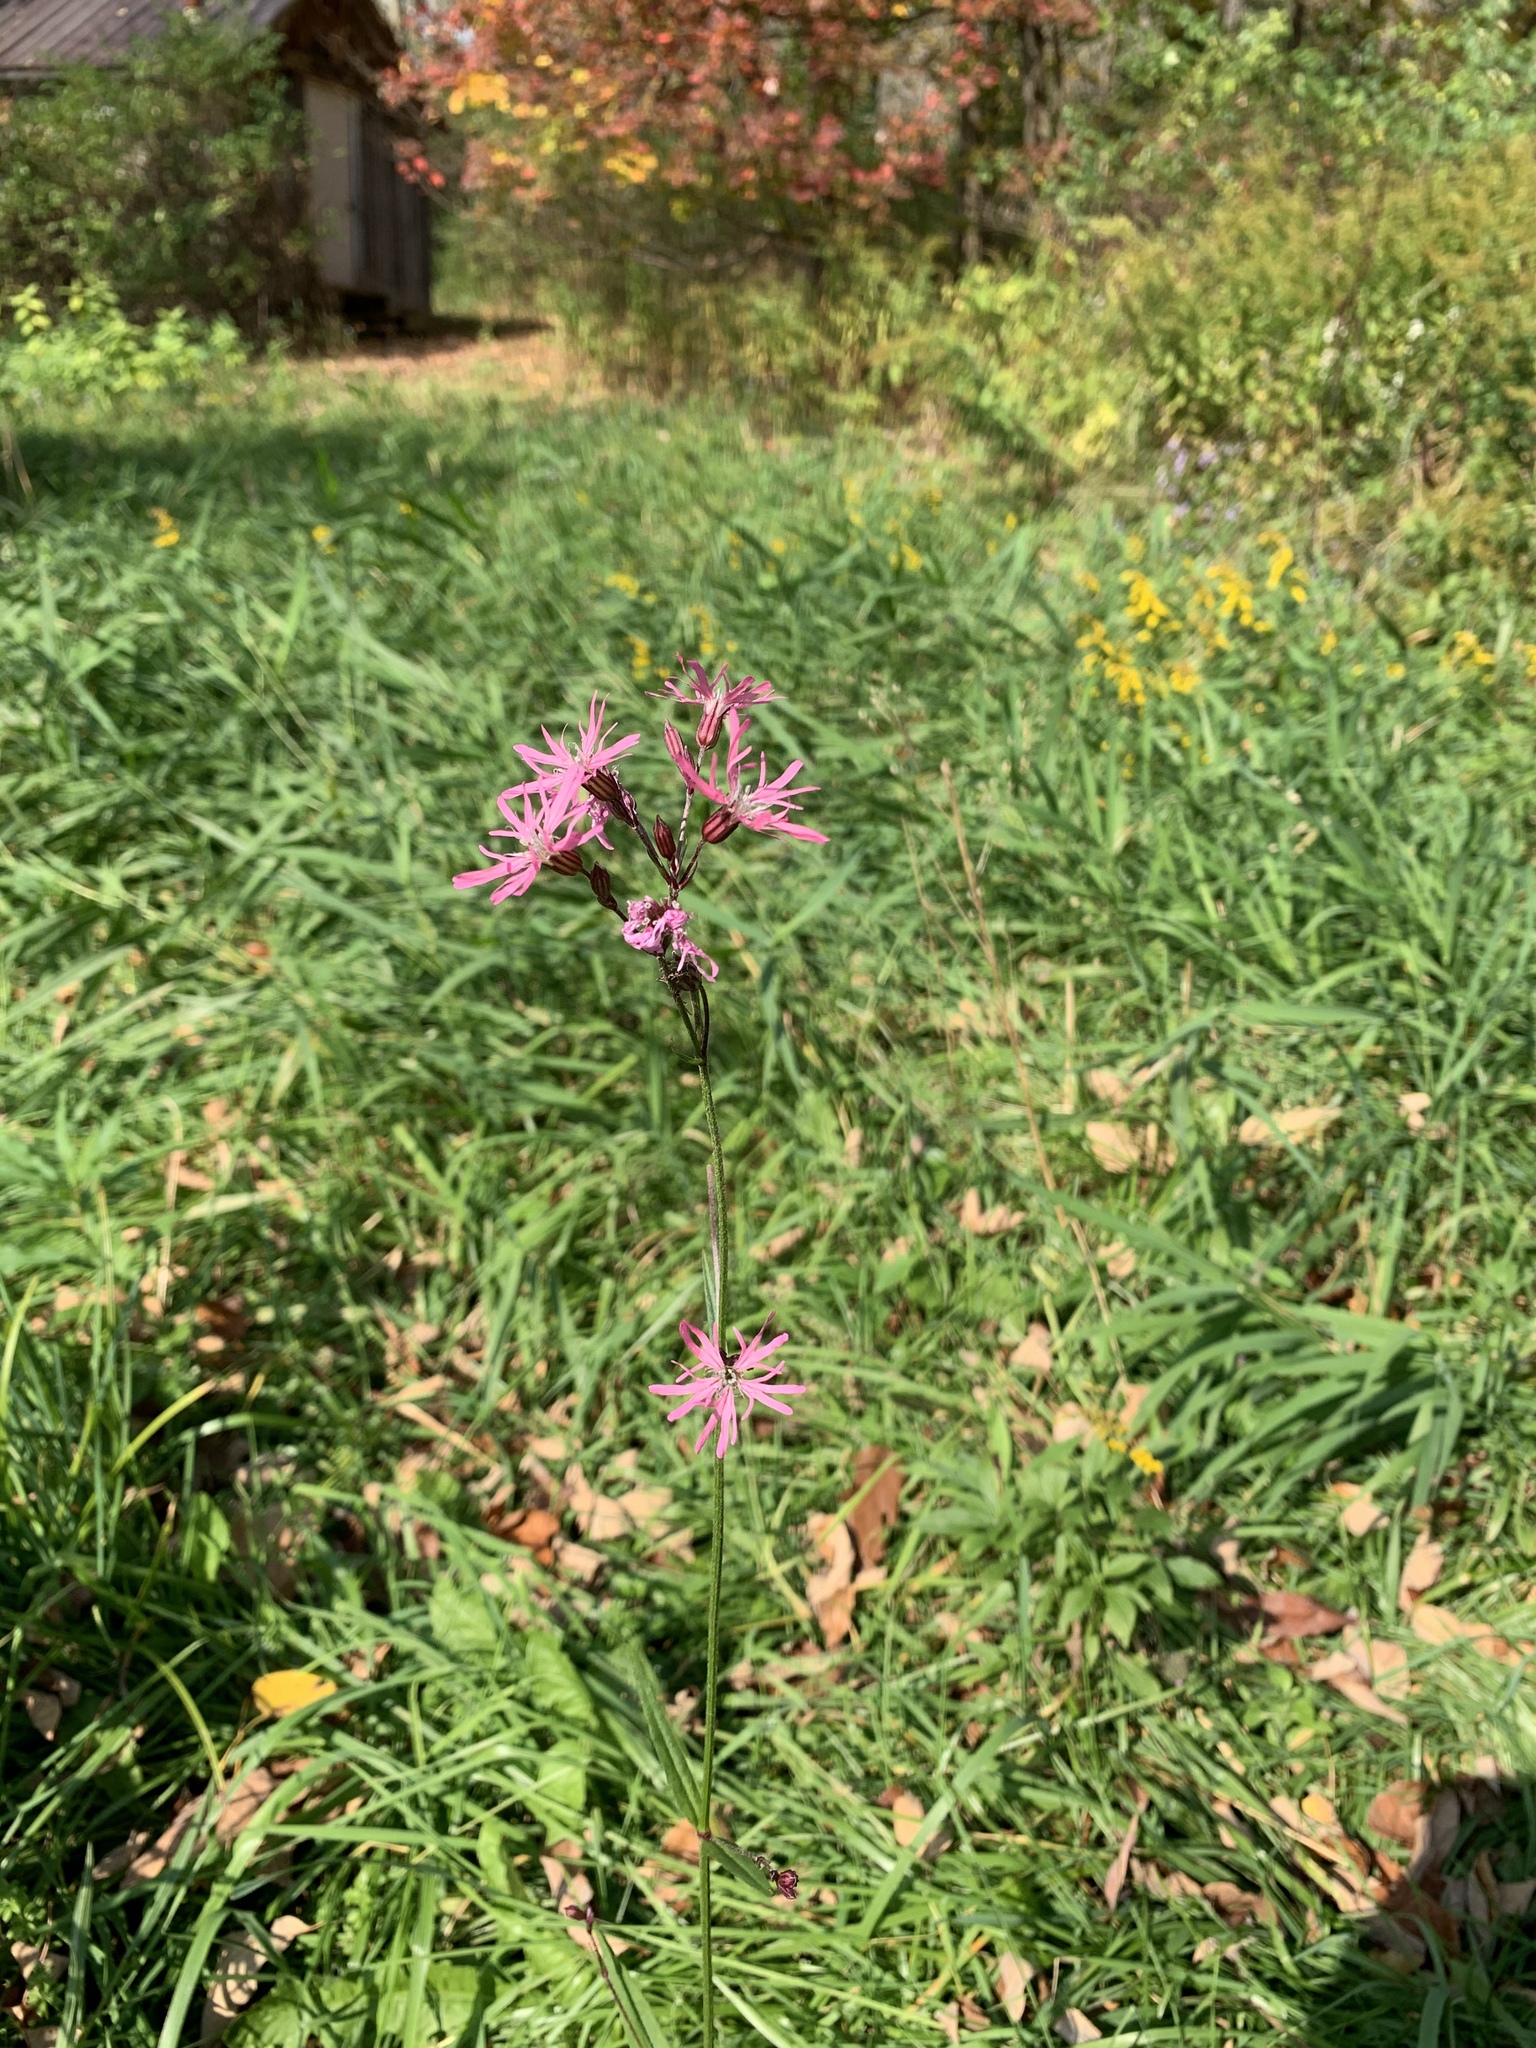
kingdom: Plantae
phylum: Tracheophyta
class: Magnoliopsida
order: Caryophyllales
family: Caryophyllaceae
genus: Silene
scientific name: Silene flos-cuculi
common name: Ragged-robin
